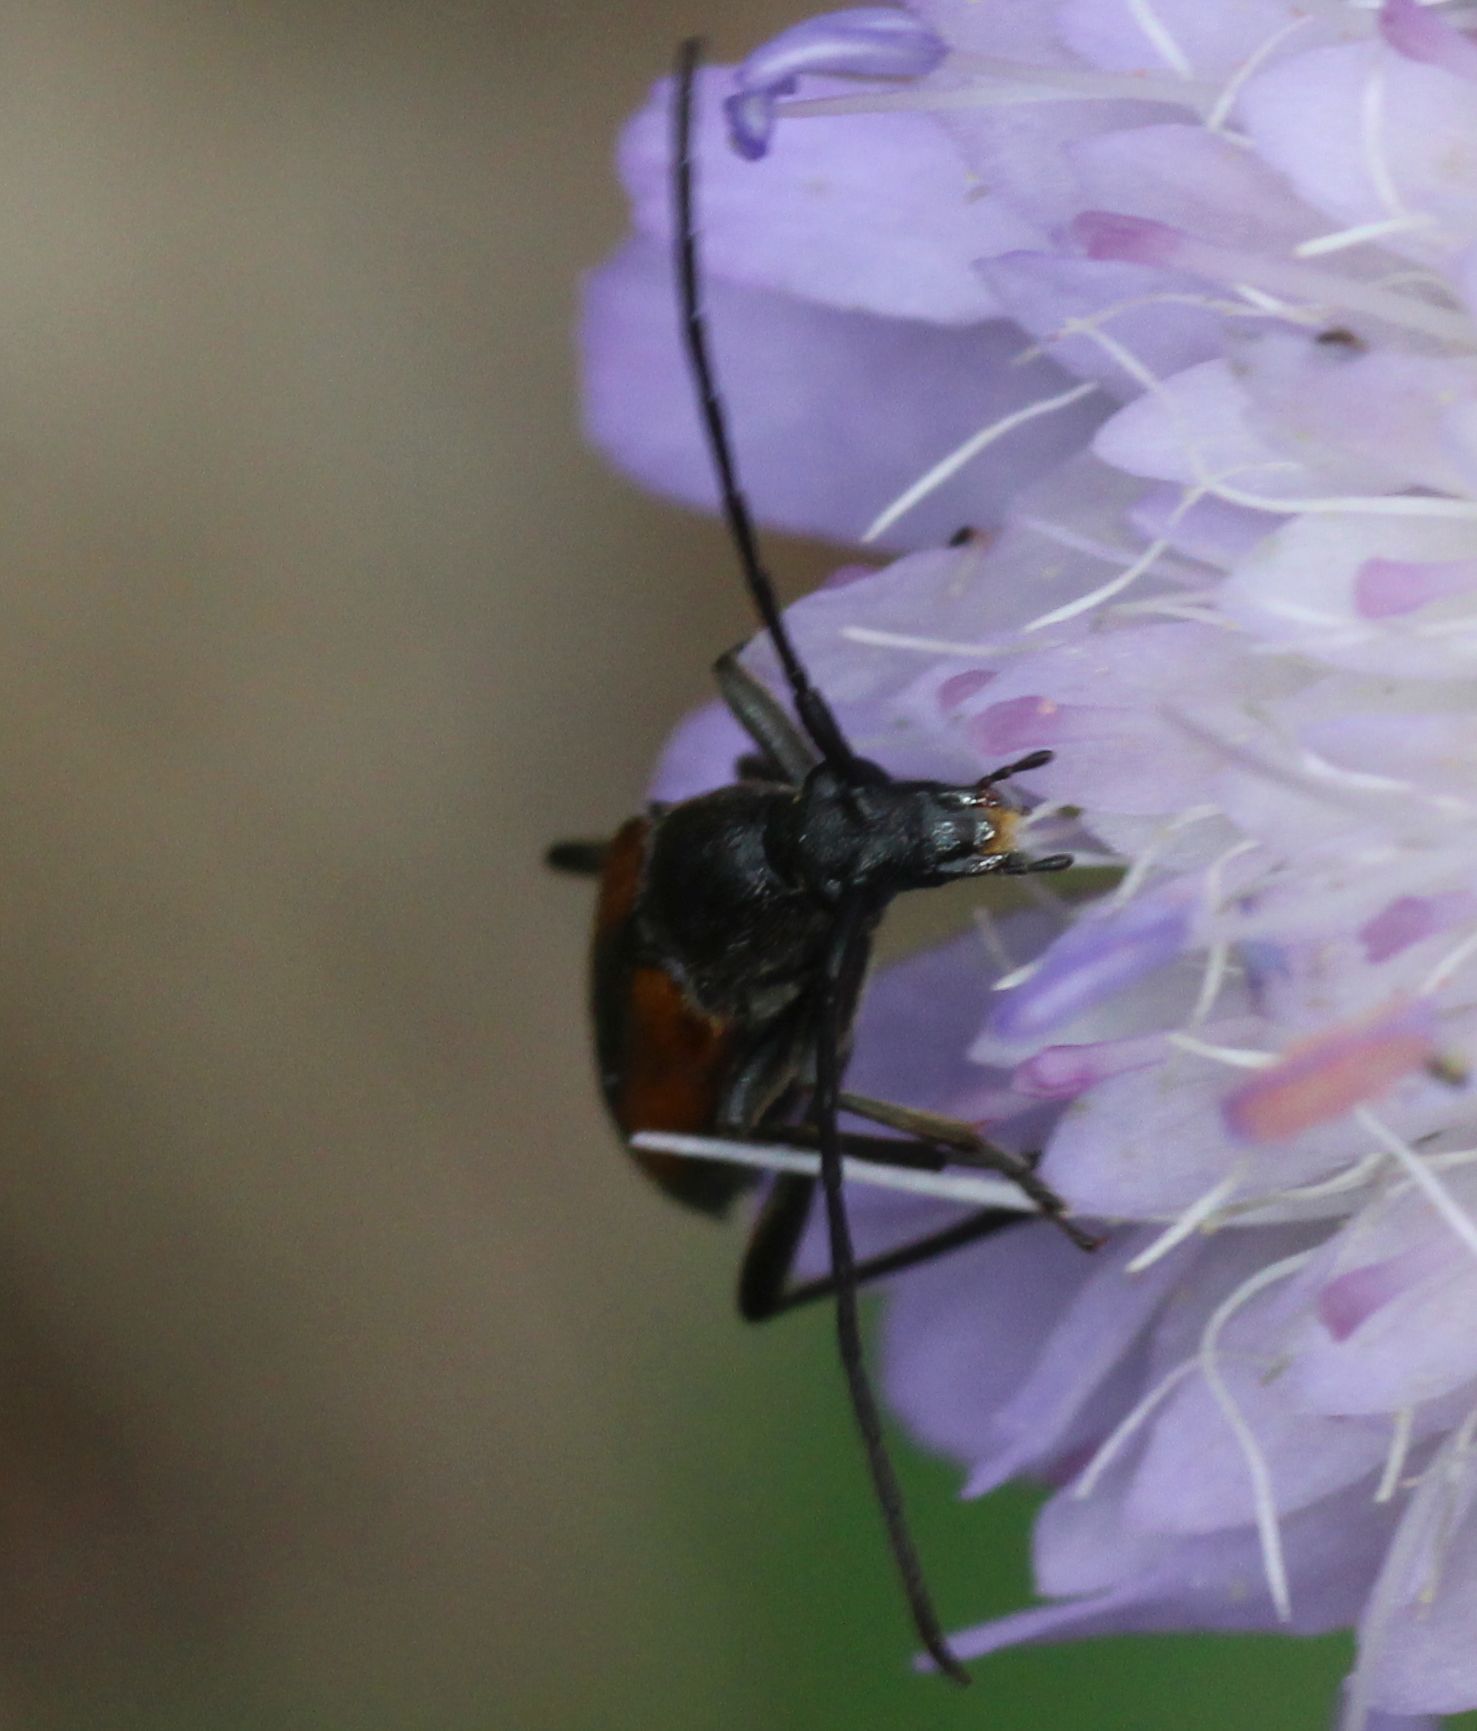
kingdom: Animalia
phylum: Arthropoda
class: Insecta
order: Coleoptera
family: Cerambycidae
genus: Stenurella
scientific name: Stenurella melanura
